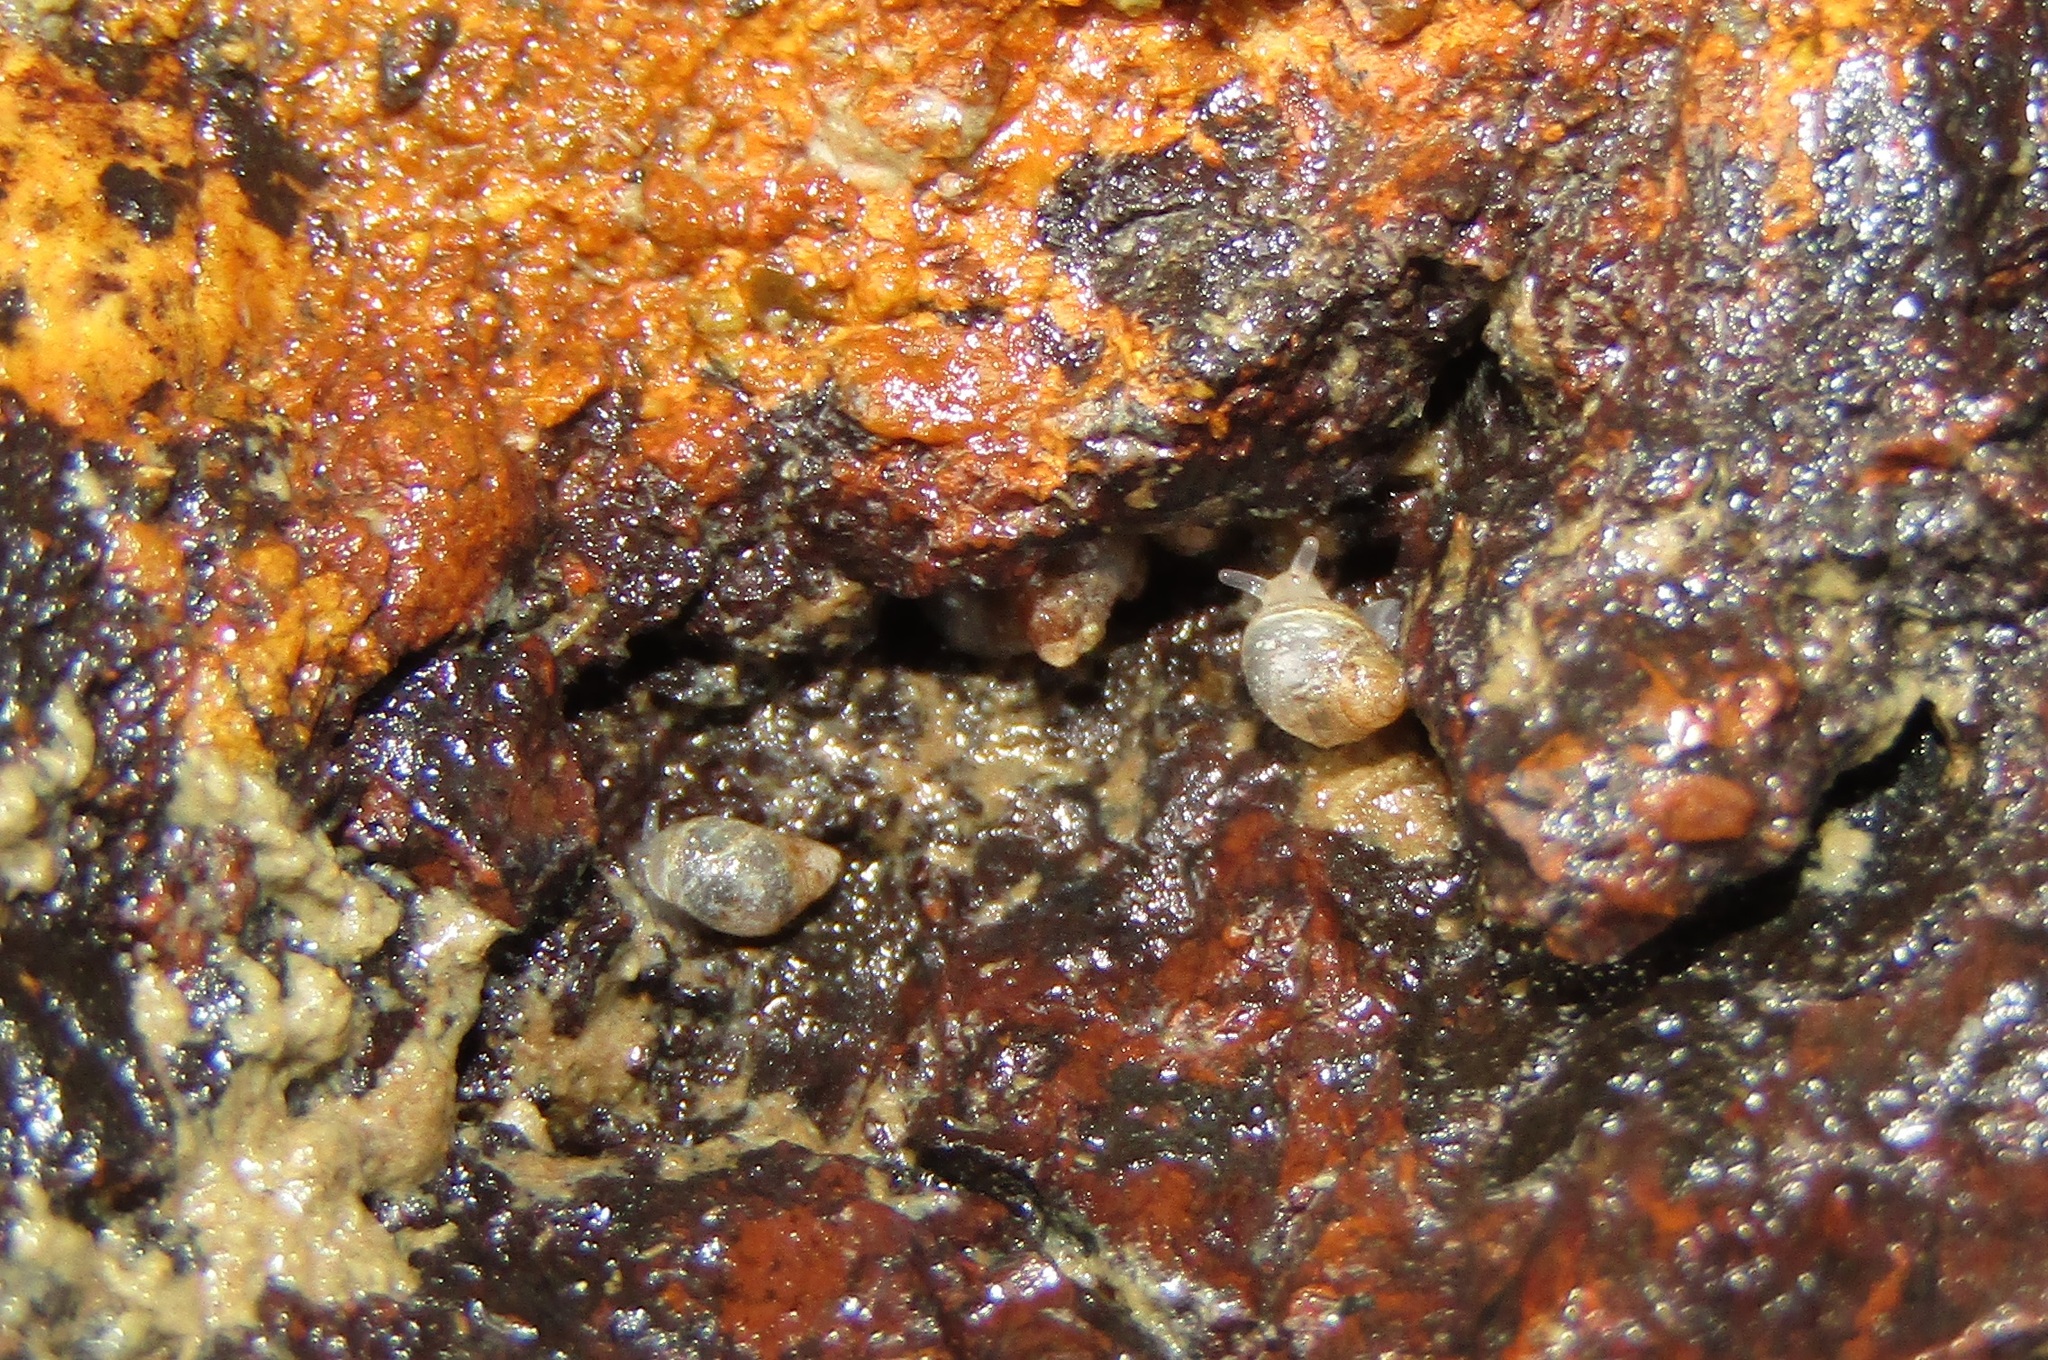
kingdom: Animalia
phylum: Mollusca
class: Gastropoda
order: Ellobiida
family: Ellobiidae
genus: Leuconopsis
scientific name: Leuconopsis obsoleta
